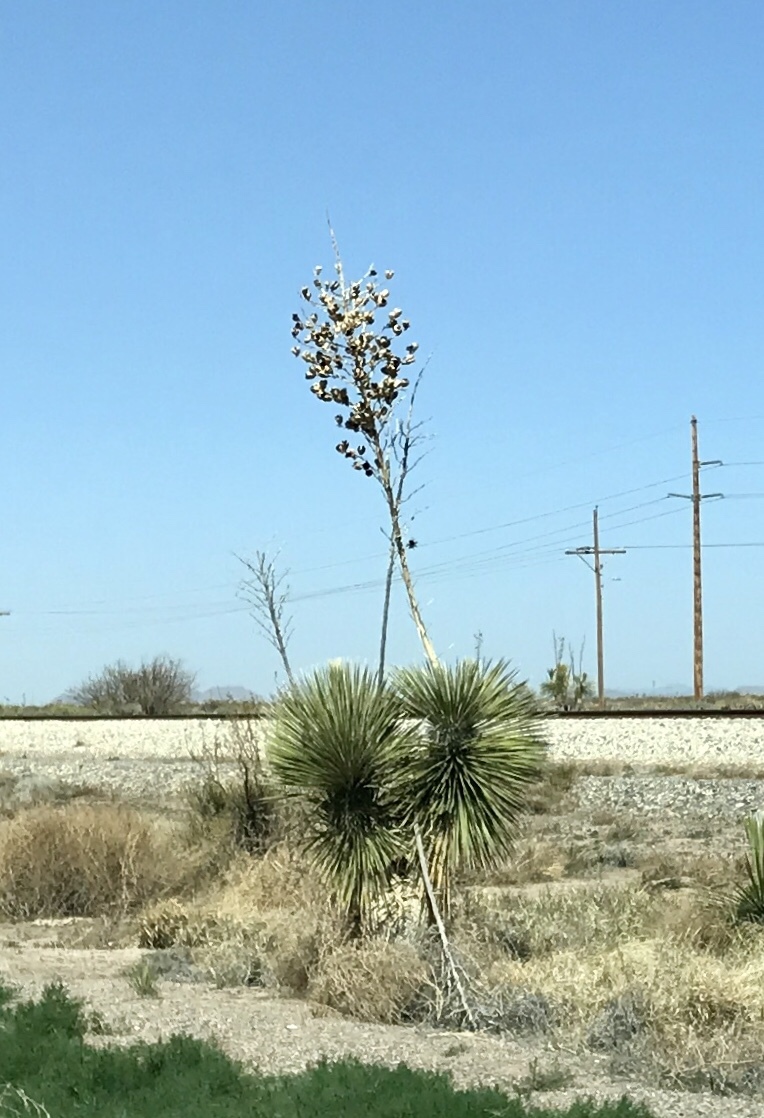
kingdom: Plantae
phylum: Tracheophyta
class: Liliopsida
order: Asparagales
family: Asparagaceae
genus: Yucca
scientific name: Yucca elata
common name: Palmella
